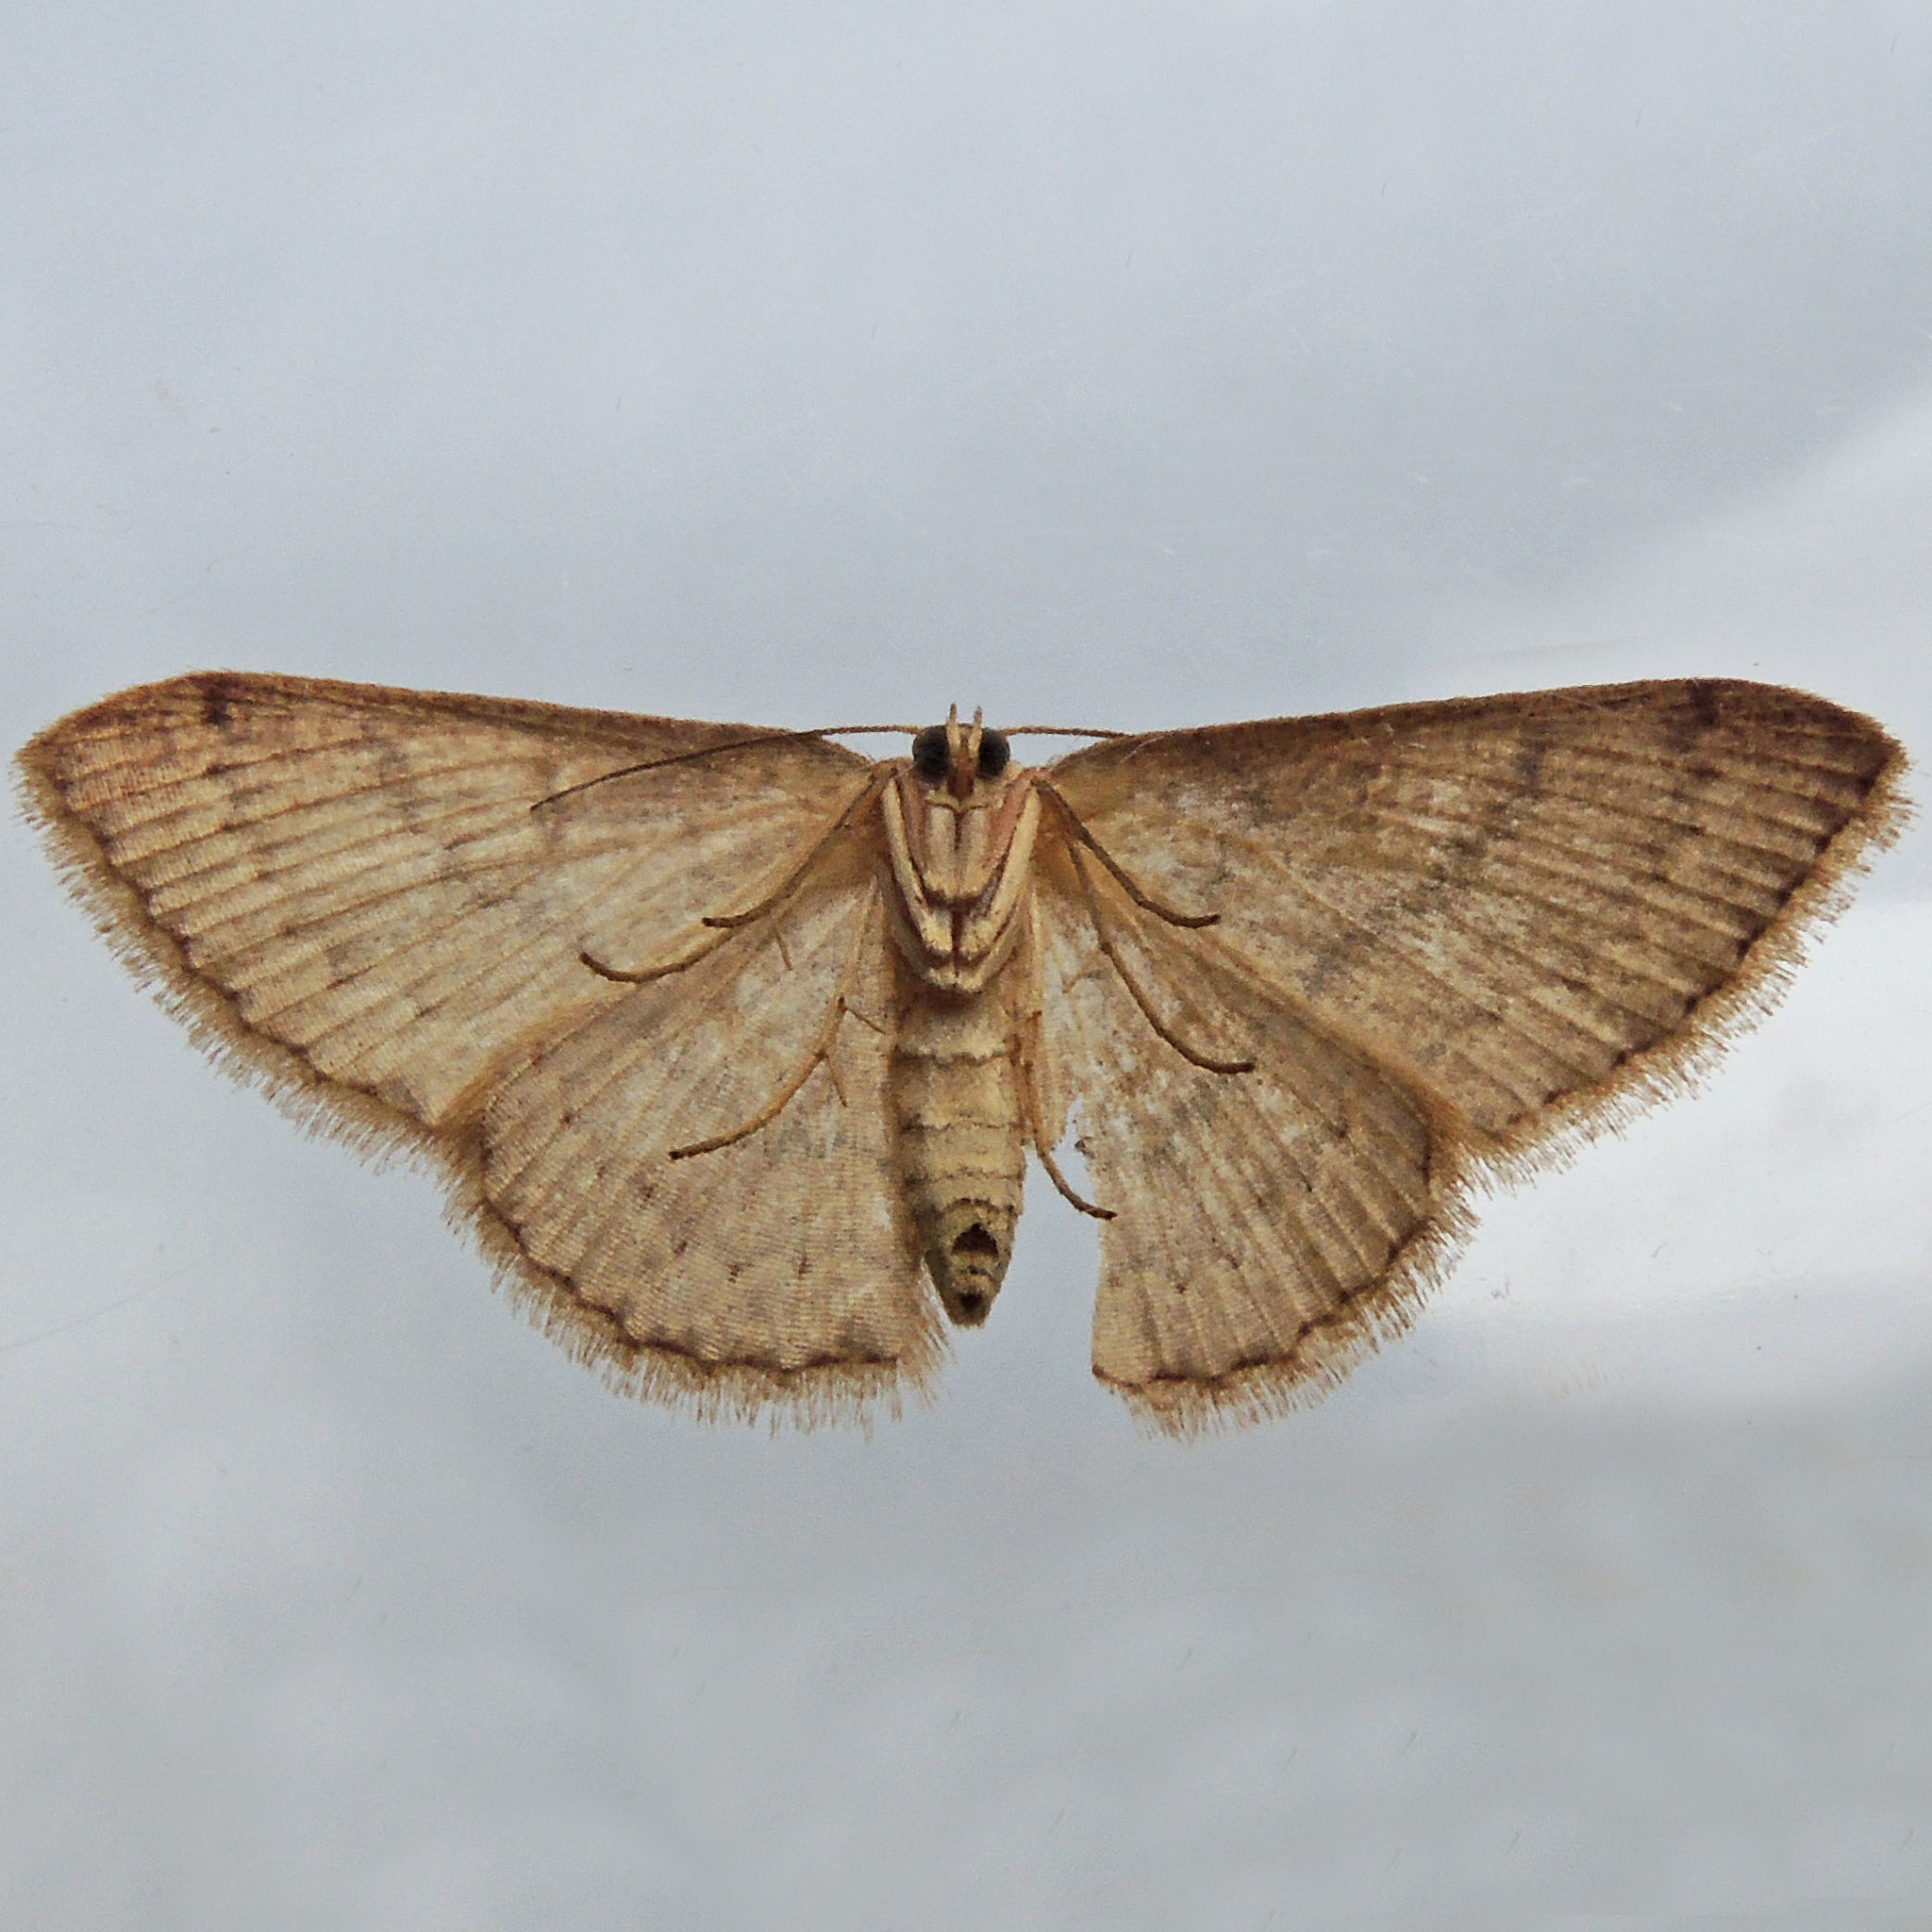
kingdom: Animalia
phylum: Arthropoda
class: Insecta
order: Lepidoptera
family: Geometridae
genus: Pleuroprucha
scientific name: Pleuroprucha insulsaria
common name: Common tan wave
